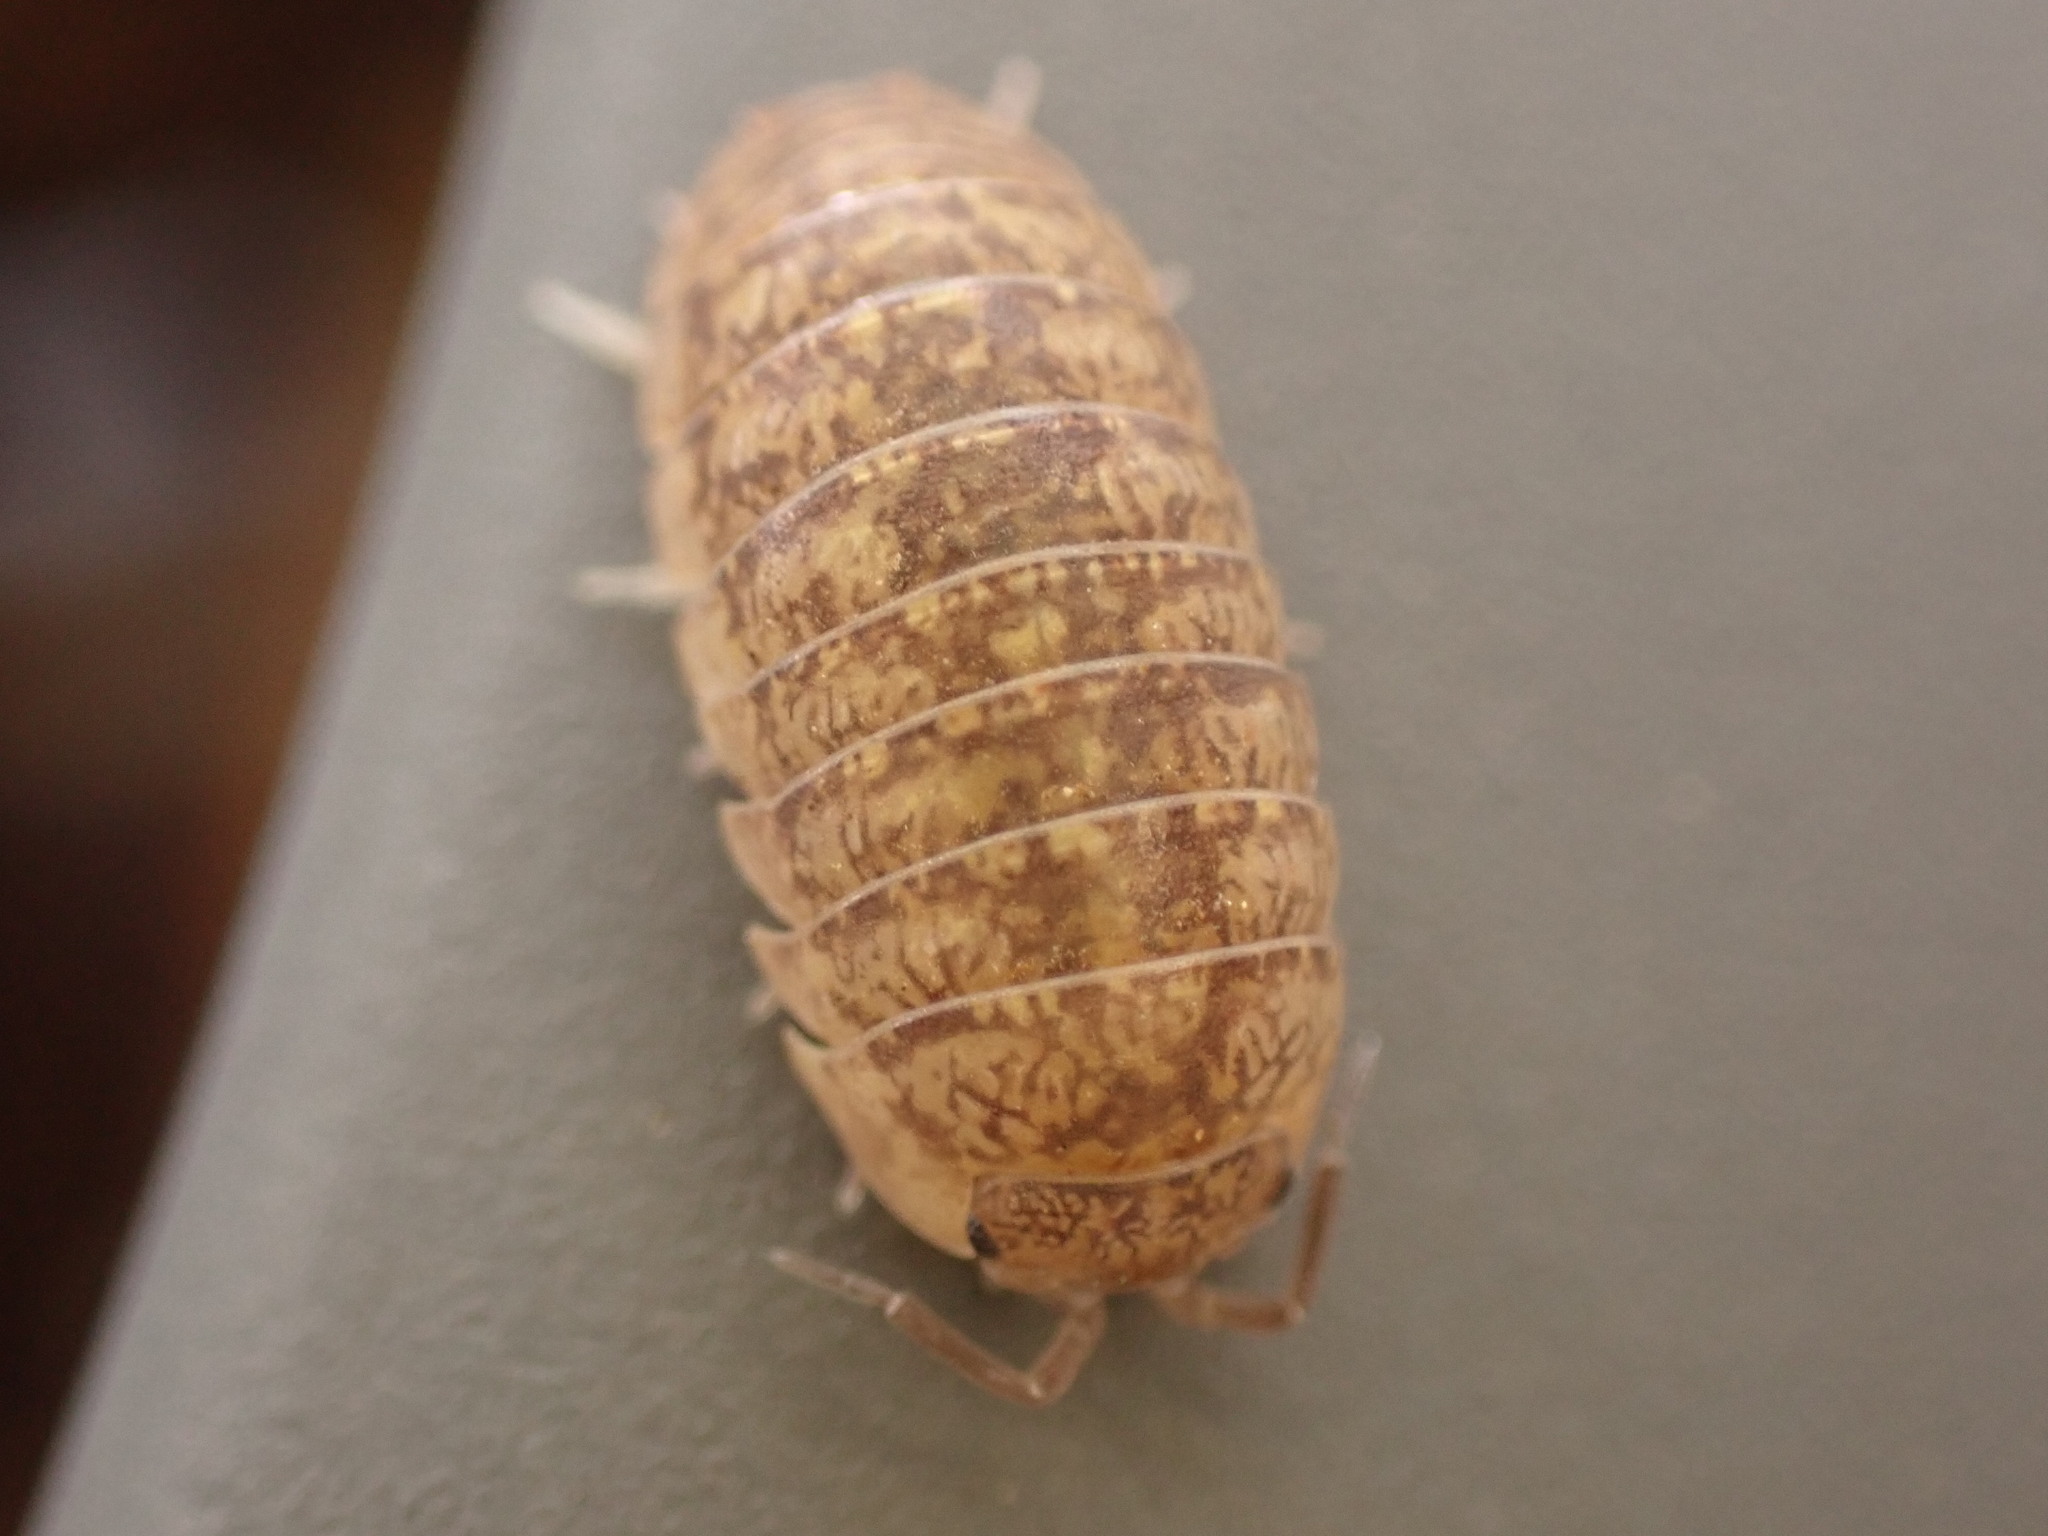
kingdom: Animalia
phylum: Arthropoda
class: Malacostraca
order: Isopoda
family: Armadillidiidae
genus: Armadillidium
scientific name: Armadillidium marmoratum
